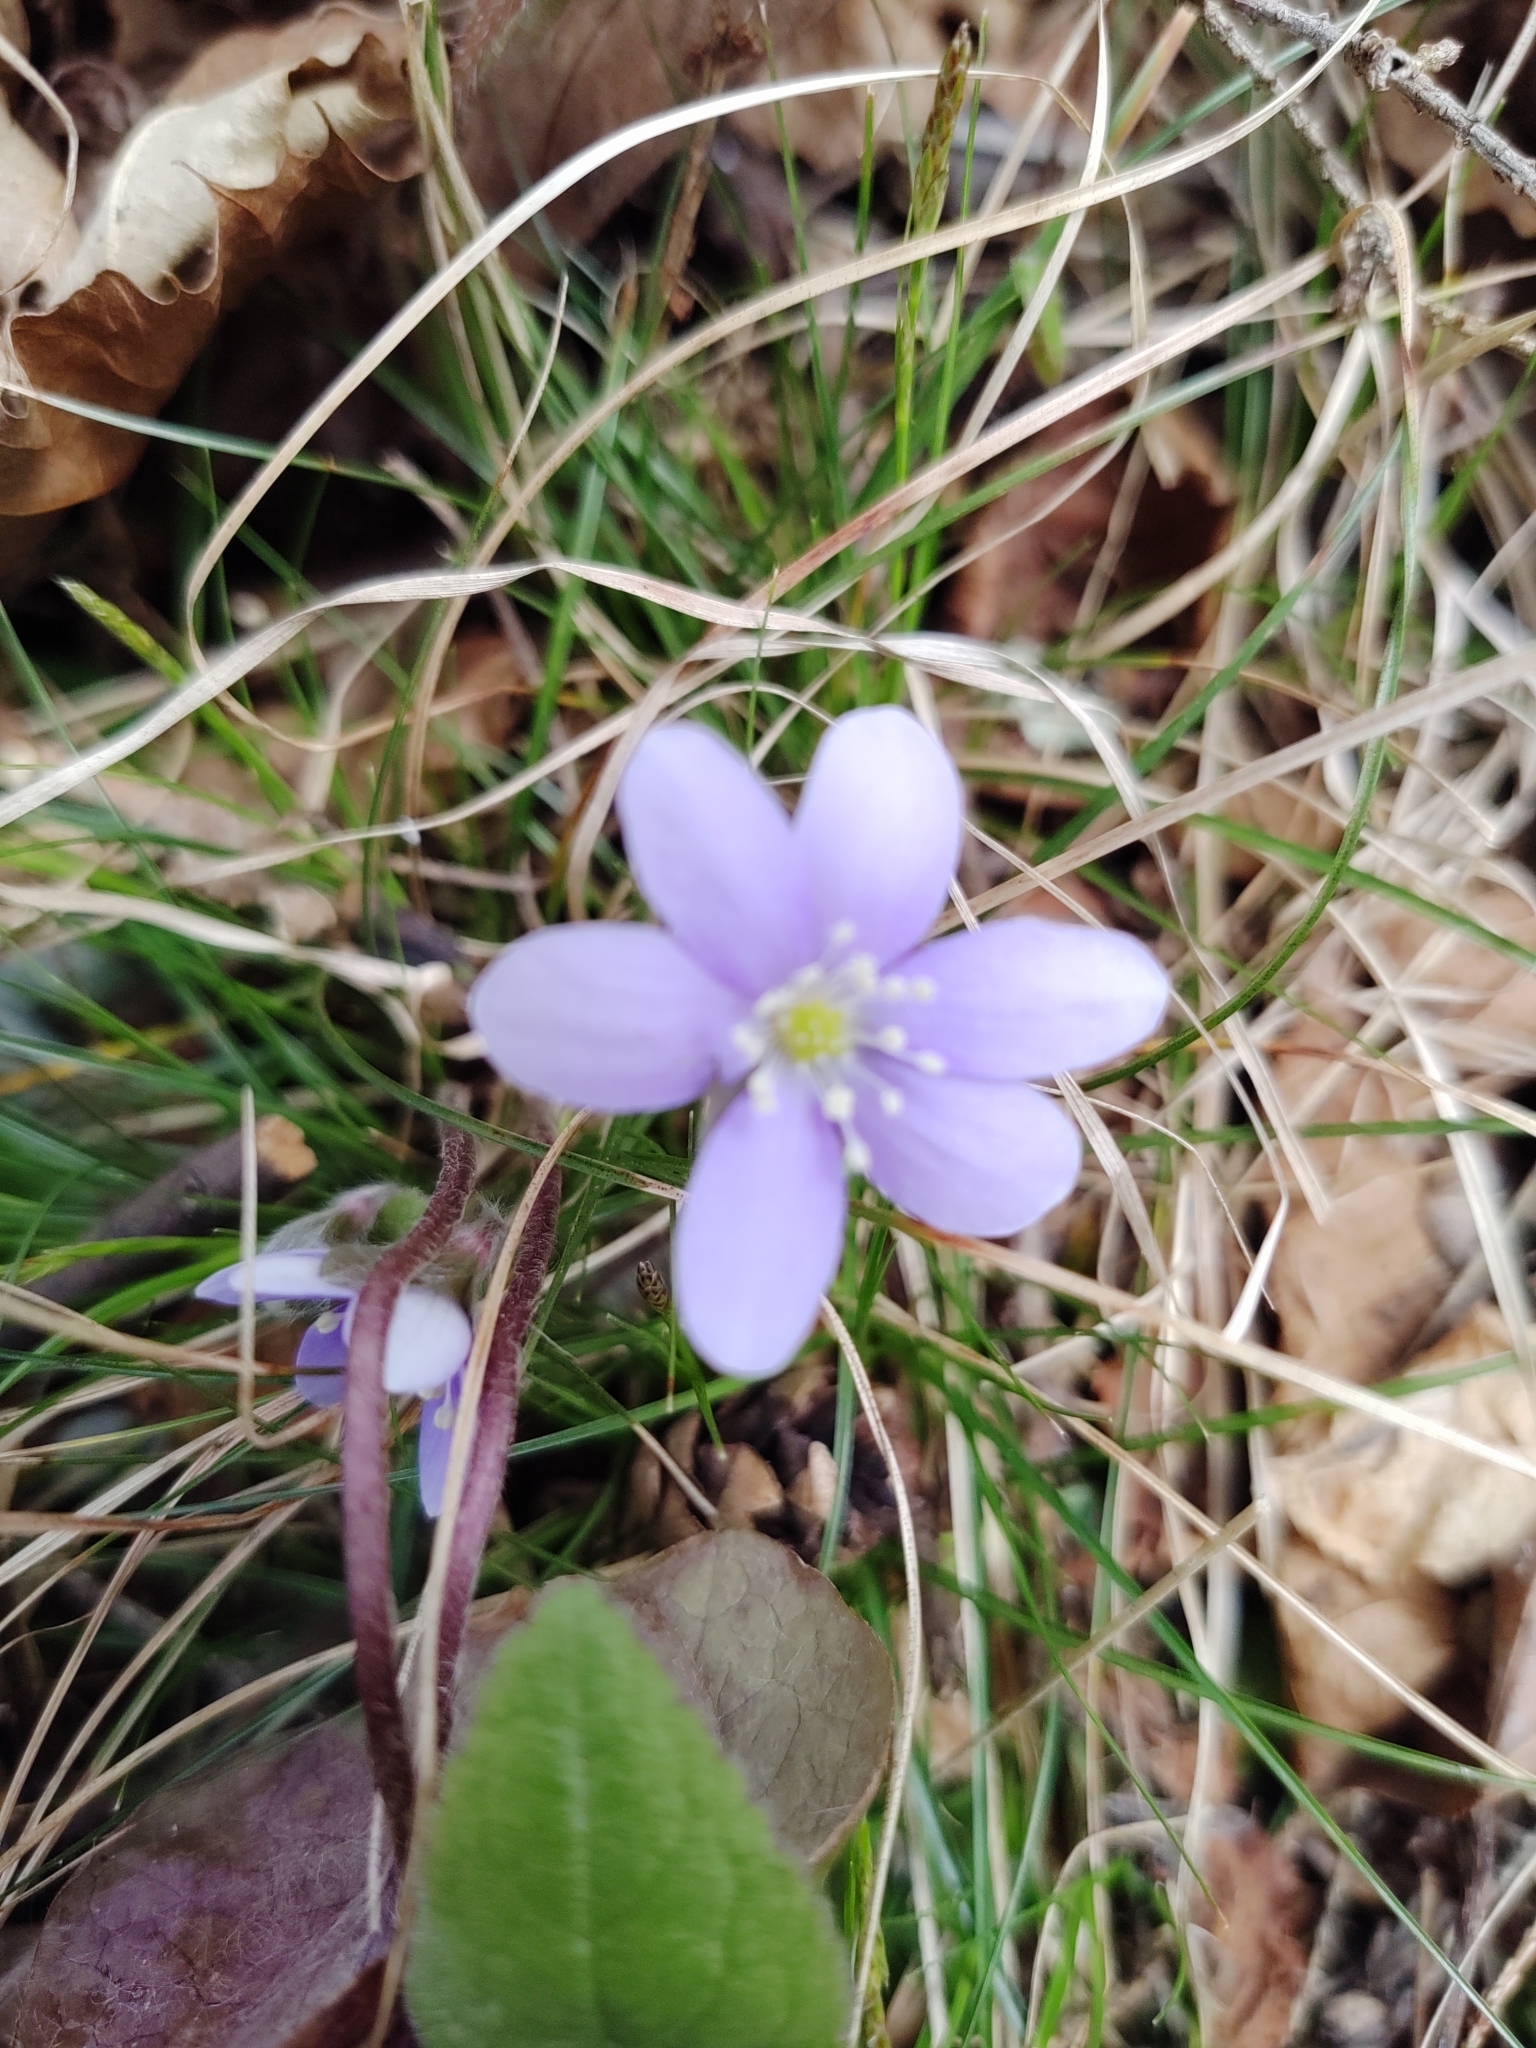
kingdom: Plantae
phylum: Tracheophyta
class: Magnoliopsida
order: Ranunculales
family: Ranunculaceae
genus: Hepatica
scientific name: Hepatica americana
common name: American hepatica
